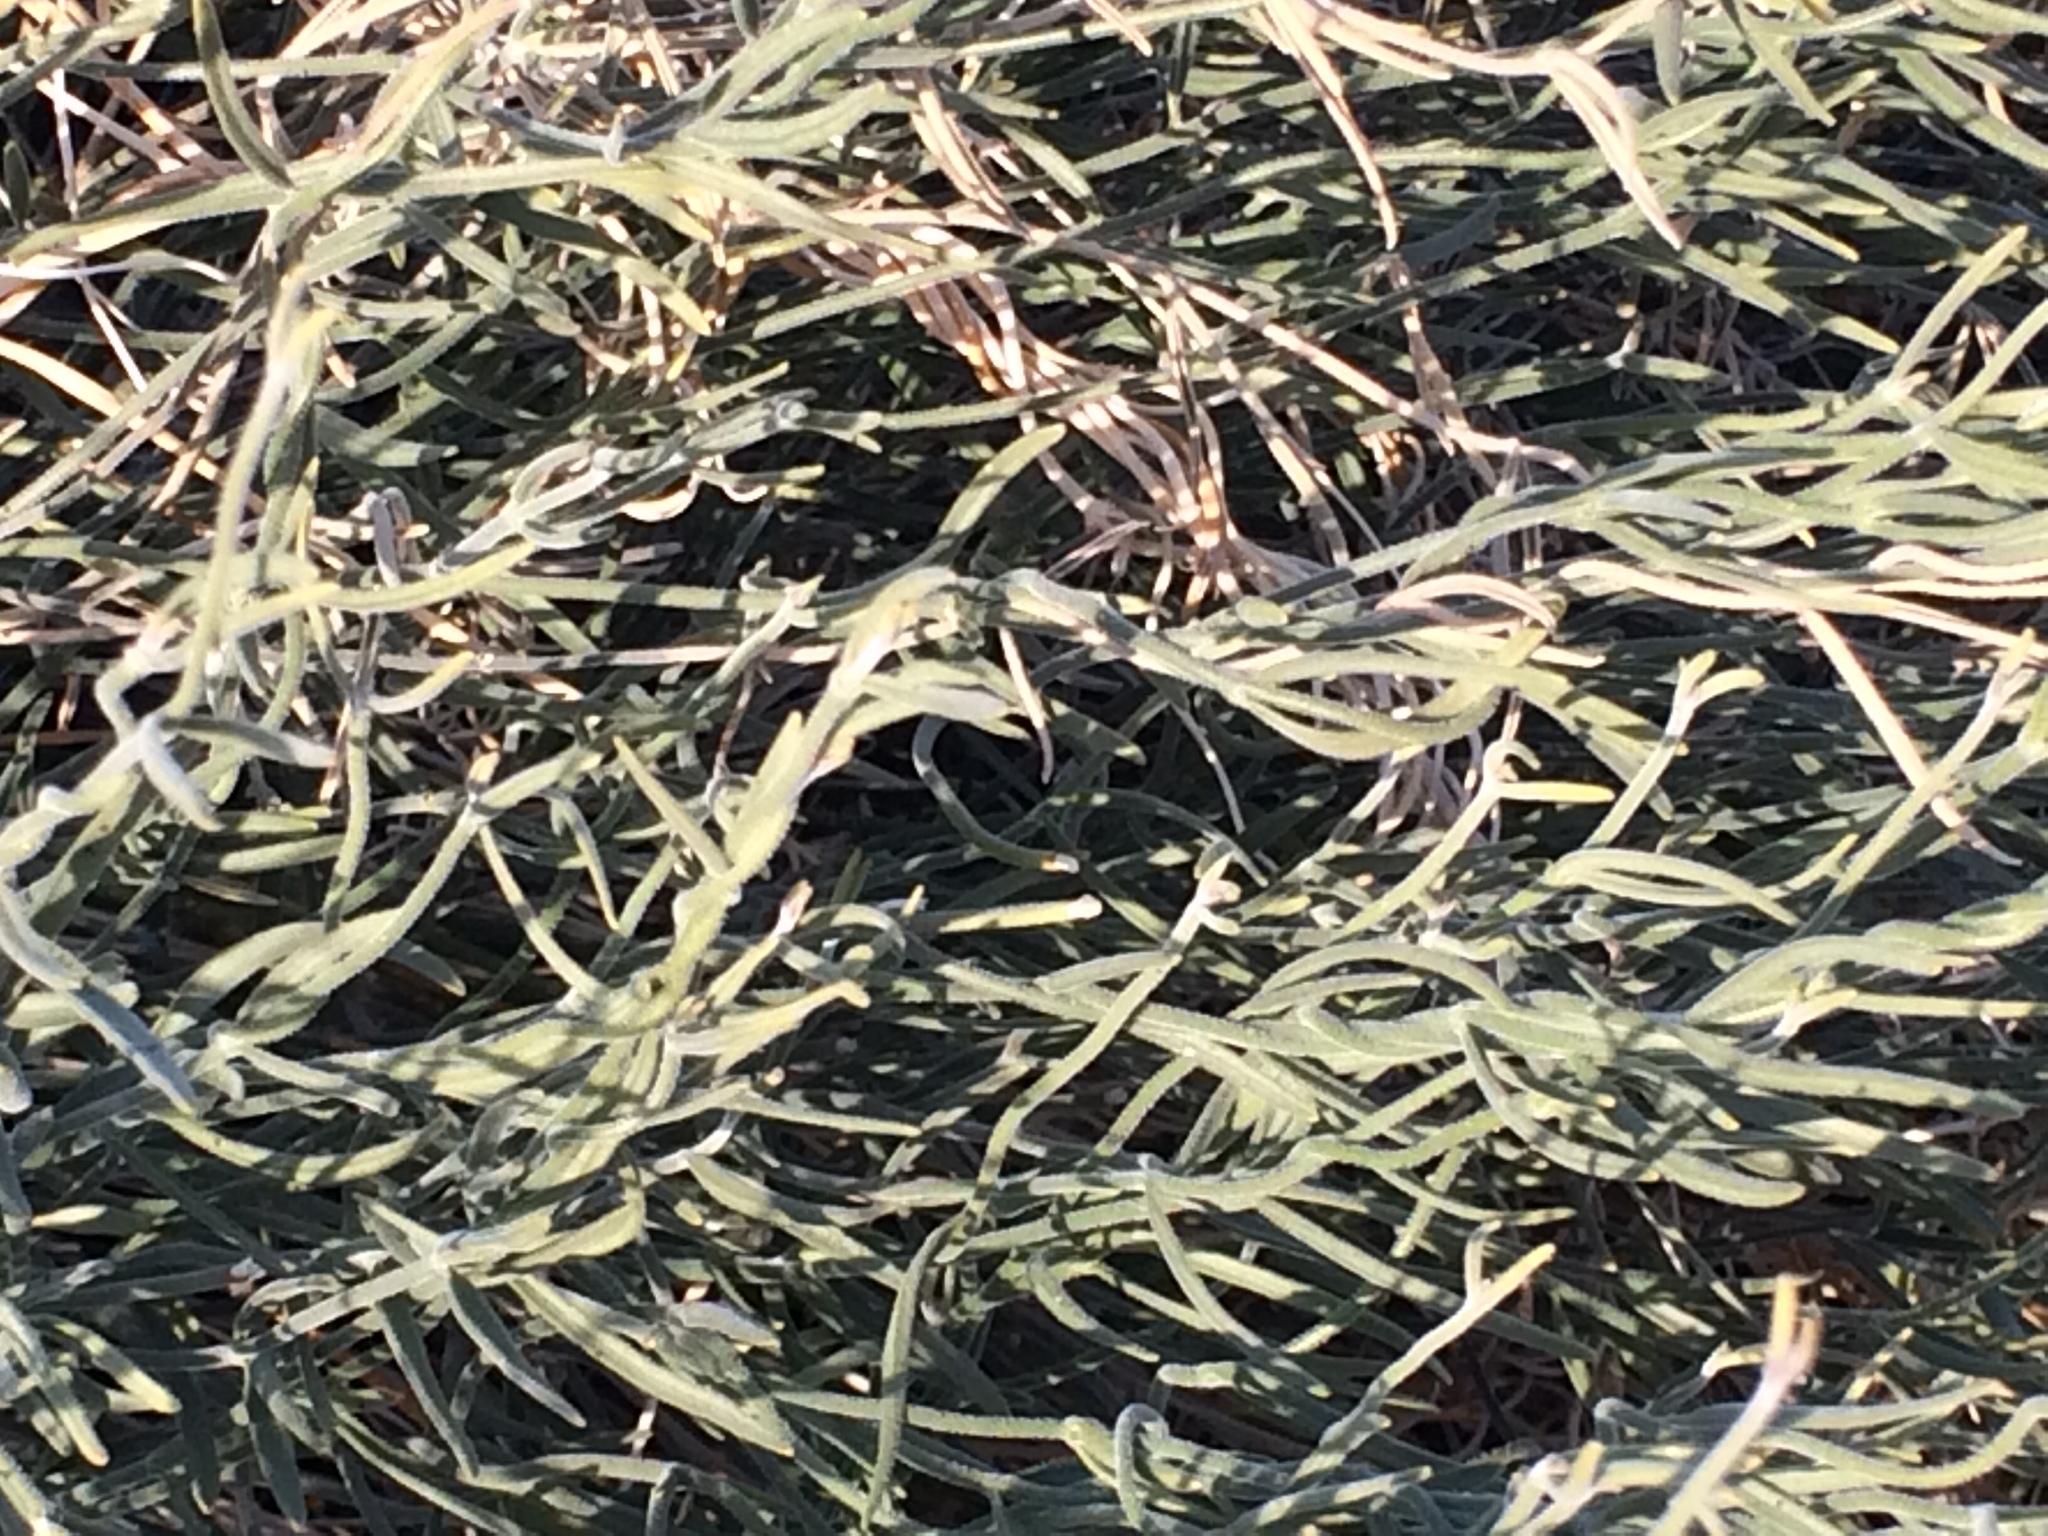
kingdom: Plantae
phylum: Tracheophyta
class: Magnoliopsida
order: Gentianales
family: Apocynaceae
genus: Funastrum
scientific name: Funastrum hirtellum
